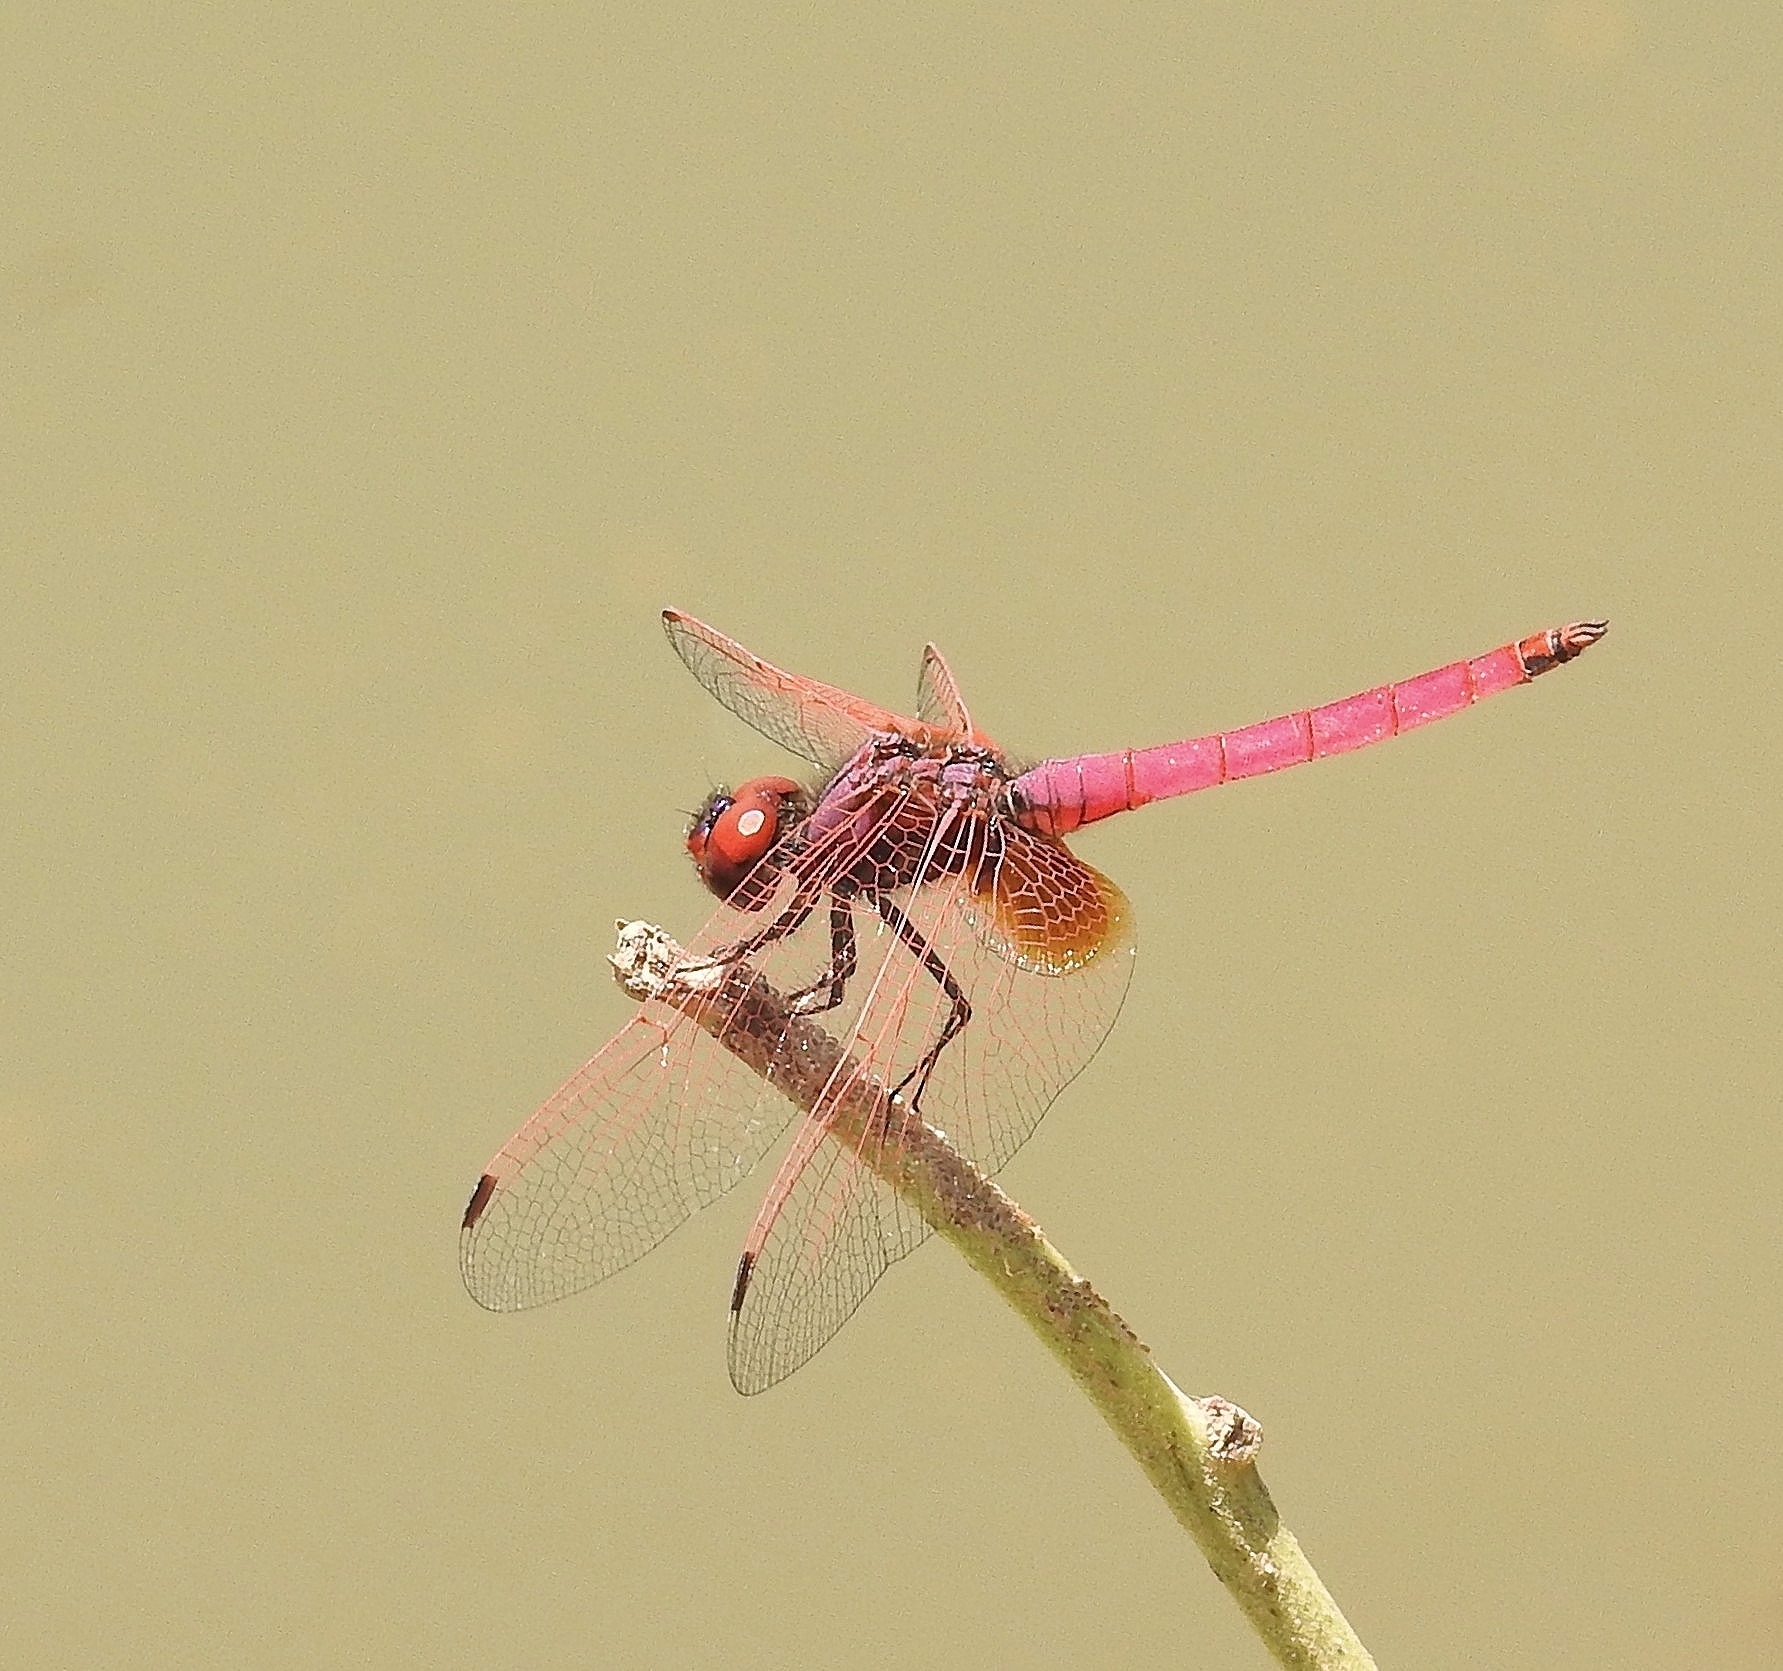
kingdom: Animalia
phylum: Arthropoda
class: Insecta
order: Odonata
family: Libellulidae
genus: Trithemis
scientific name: Trithemis aurora
